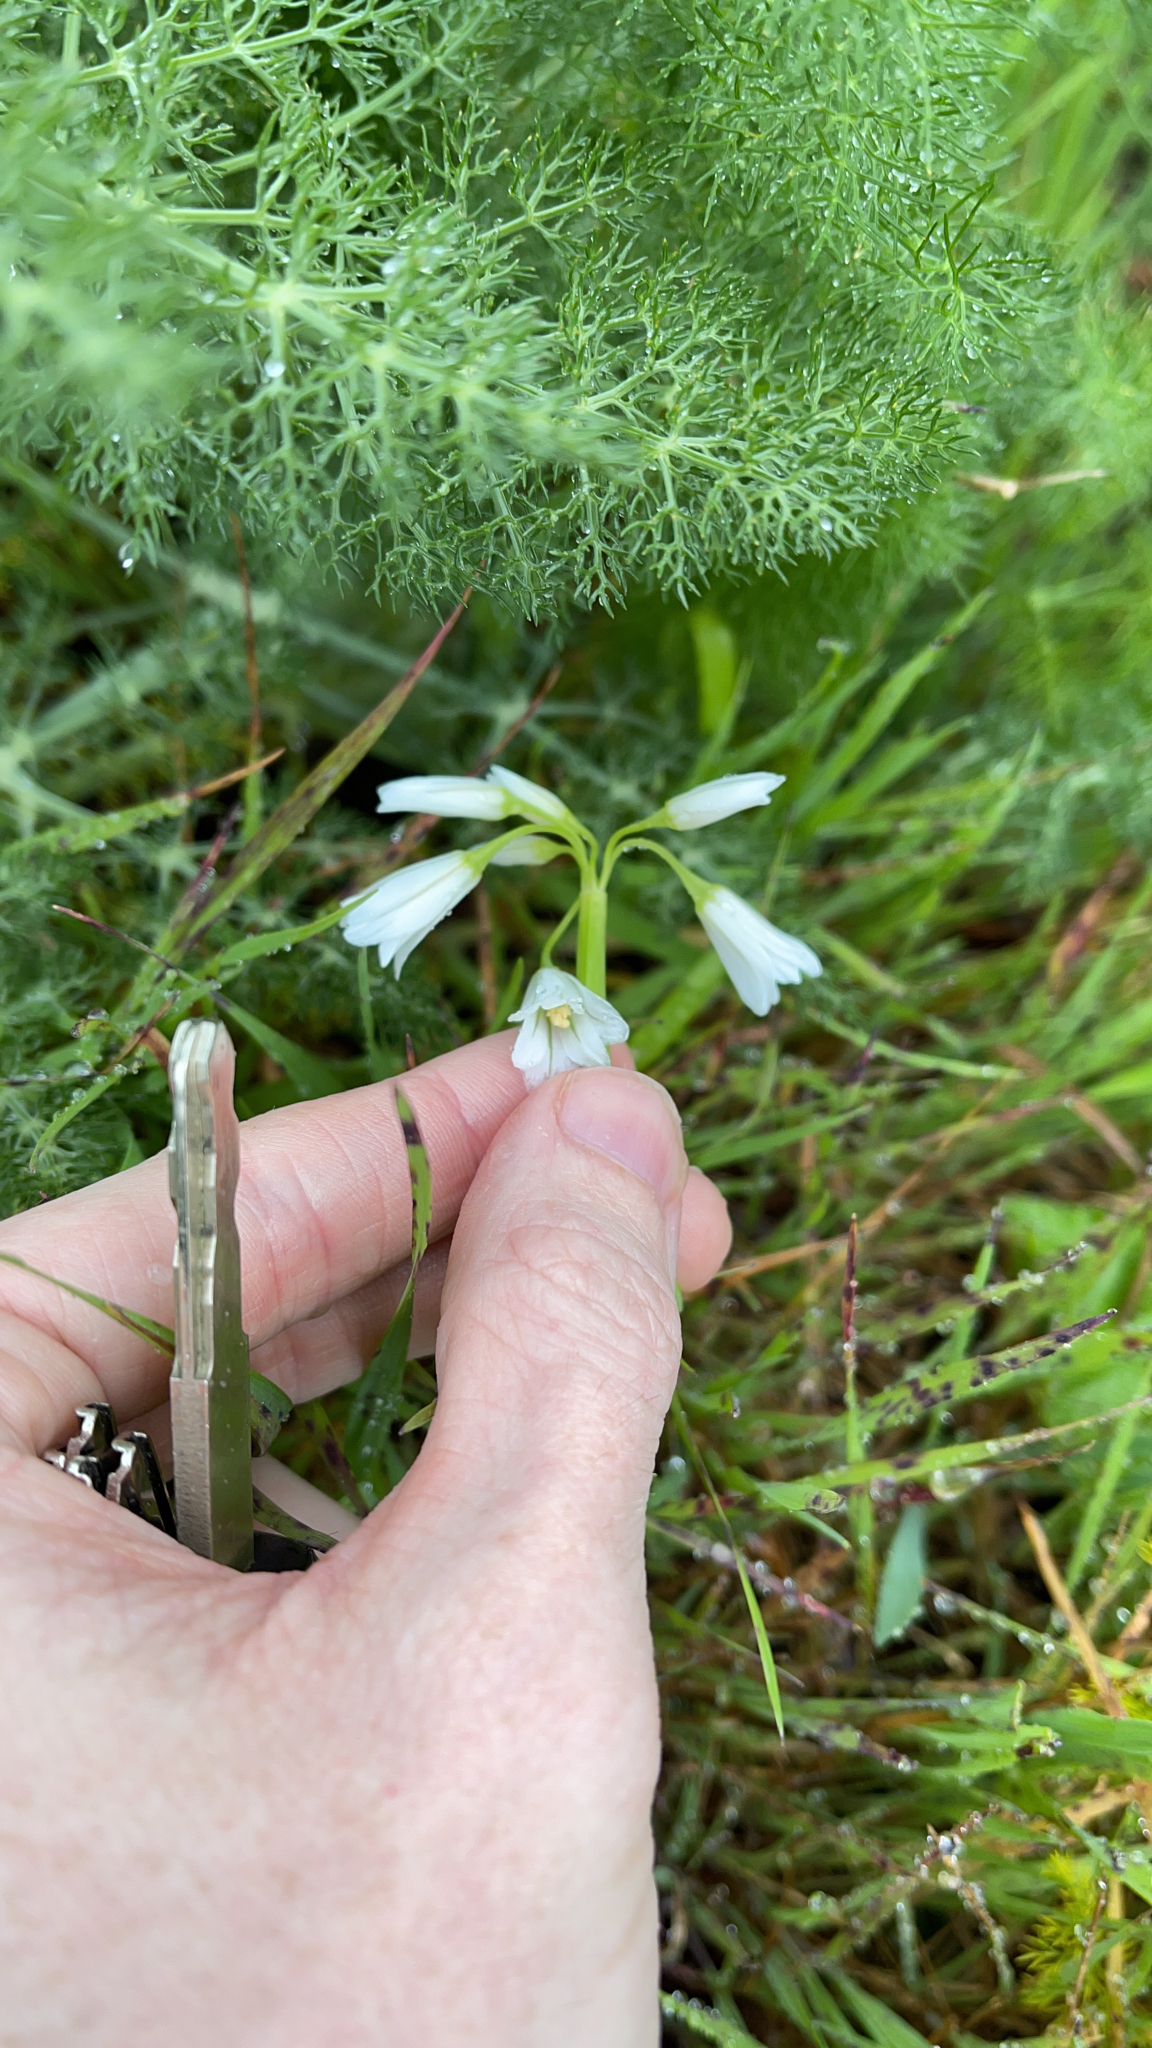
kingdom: Plantae
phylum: Tracheophyta
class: Liliopsida
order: Asparagales
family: Amaryllidaceae
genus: Allium
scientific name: Allium triquetrum
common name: Three-cornered garlic
